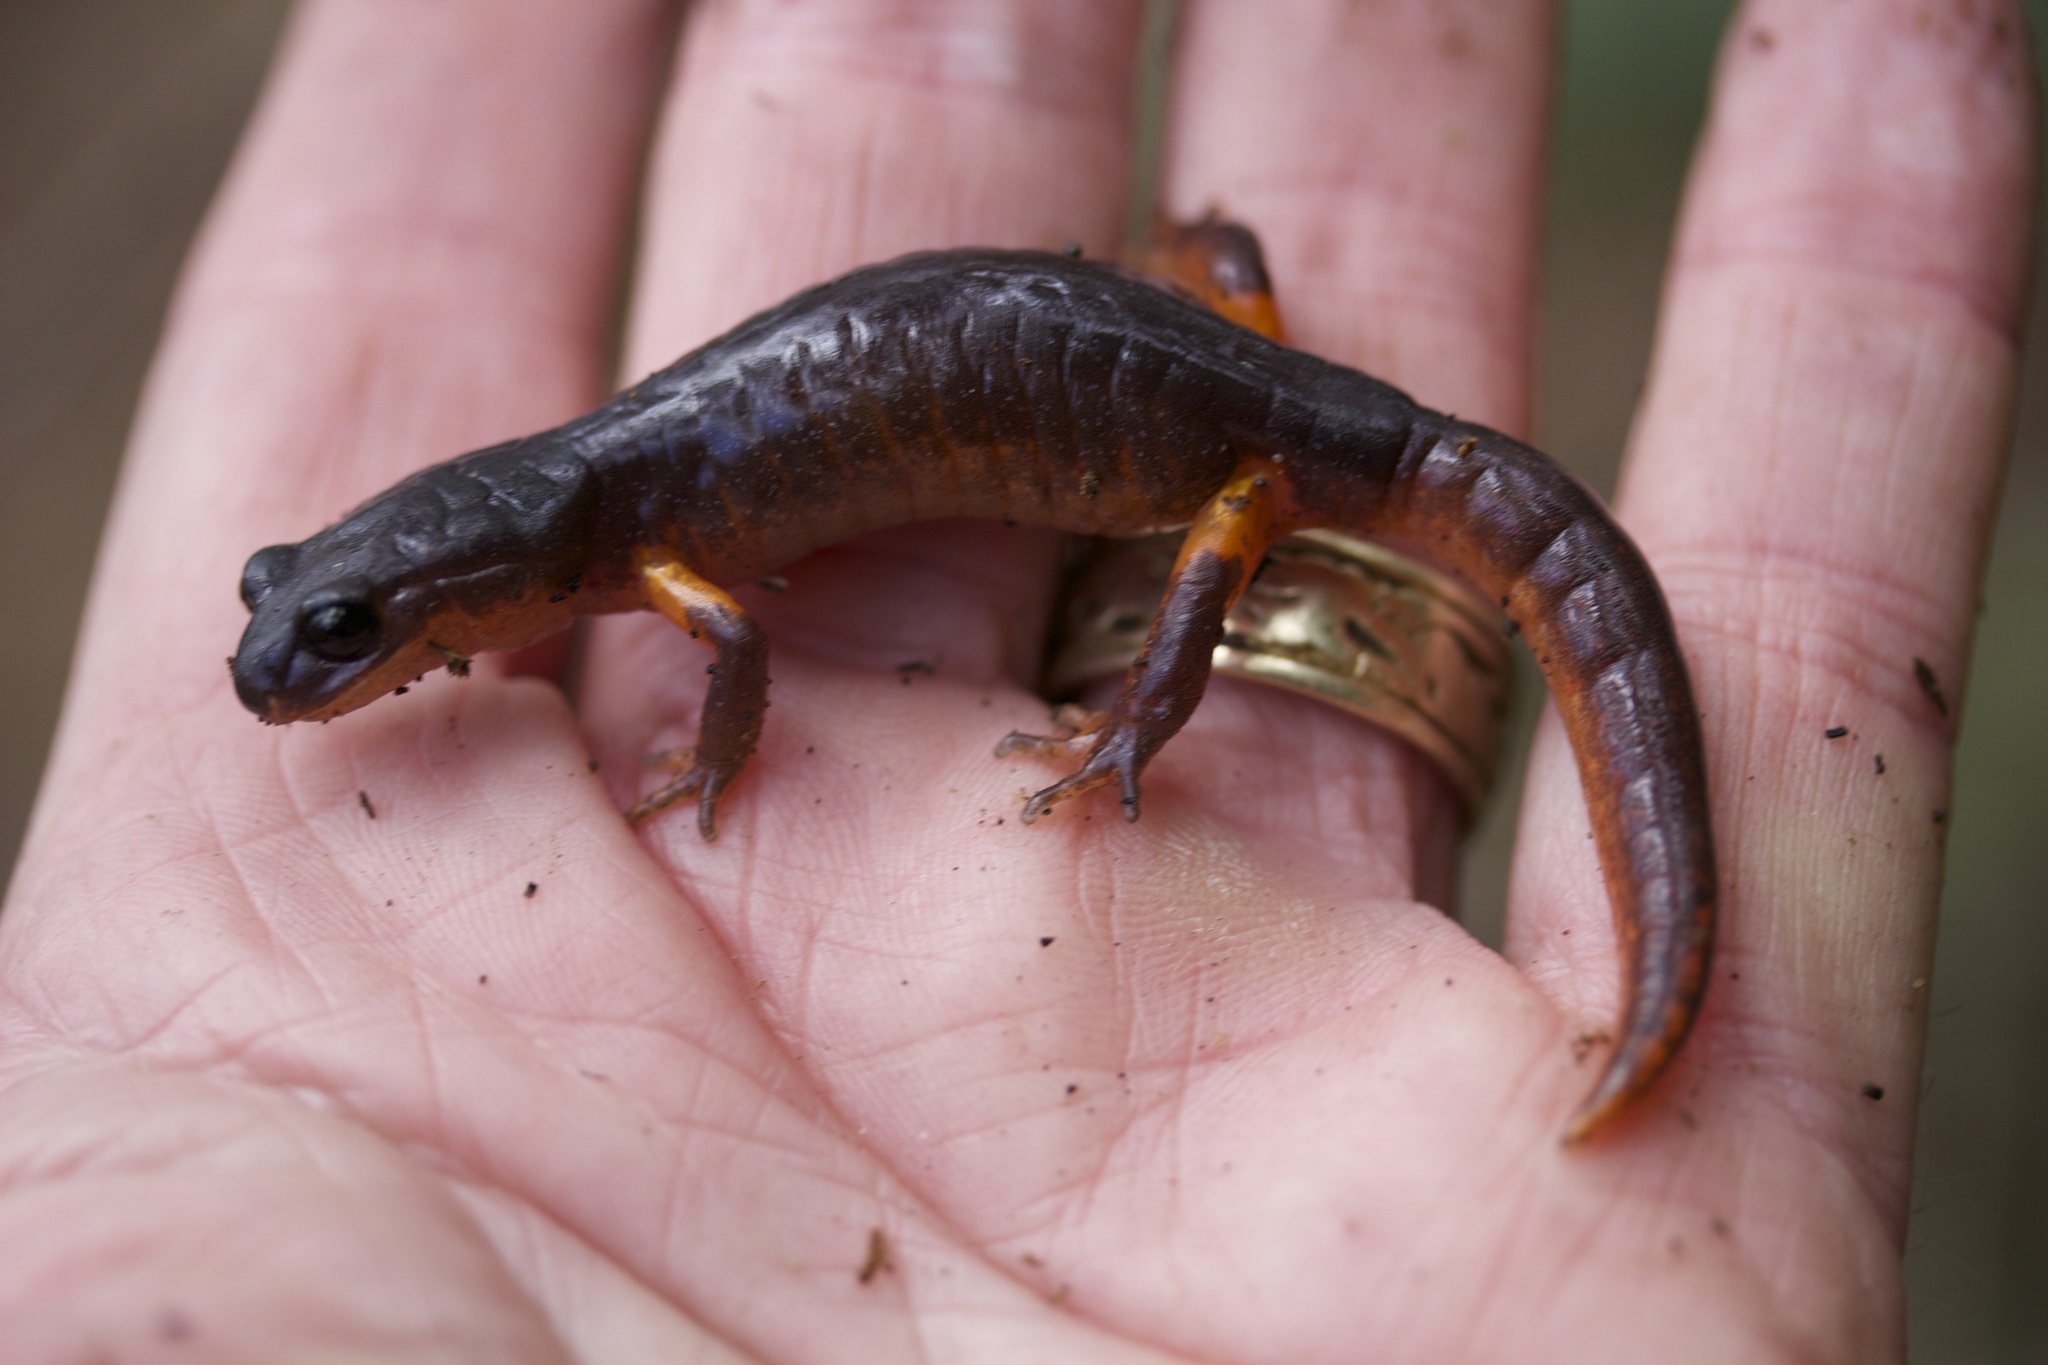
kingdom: Animalia
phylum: Chordata
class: Amphibia
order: Caudata
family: Plethodontidae
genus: Ensatina
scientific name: Ensatina eschscholtzii
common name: Ensatina
